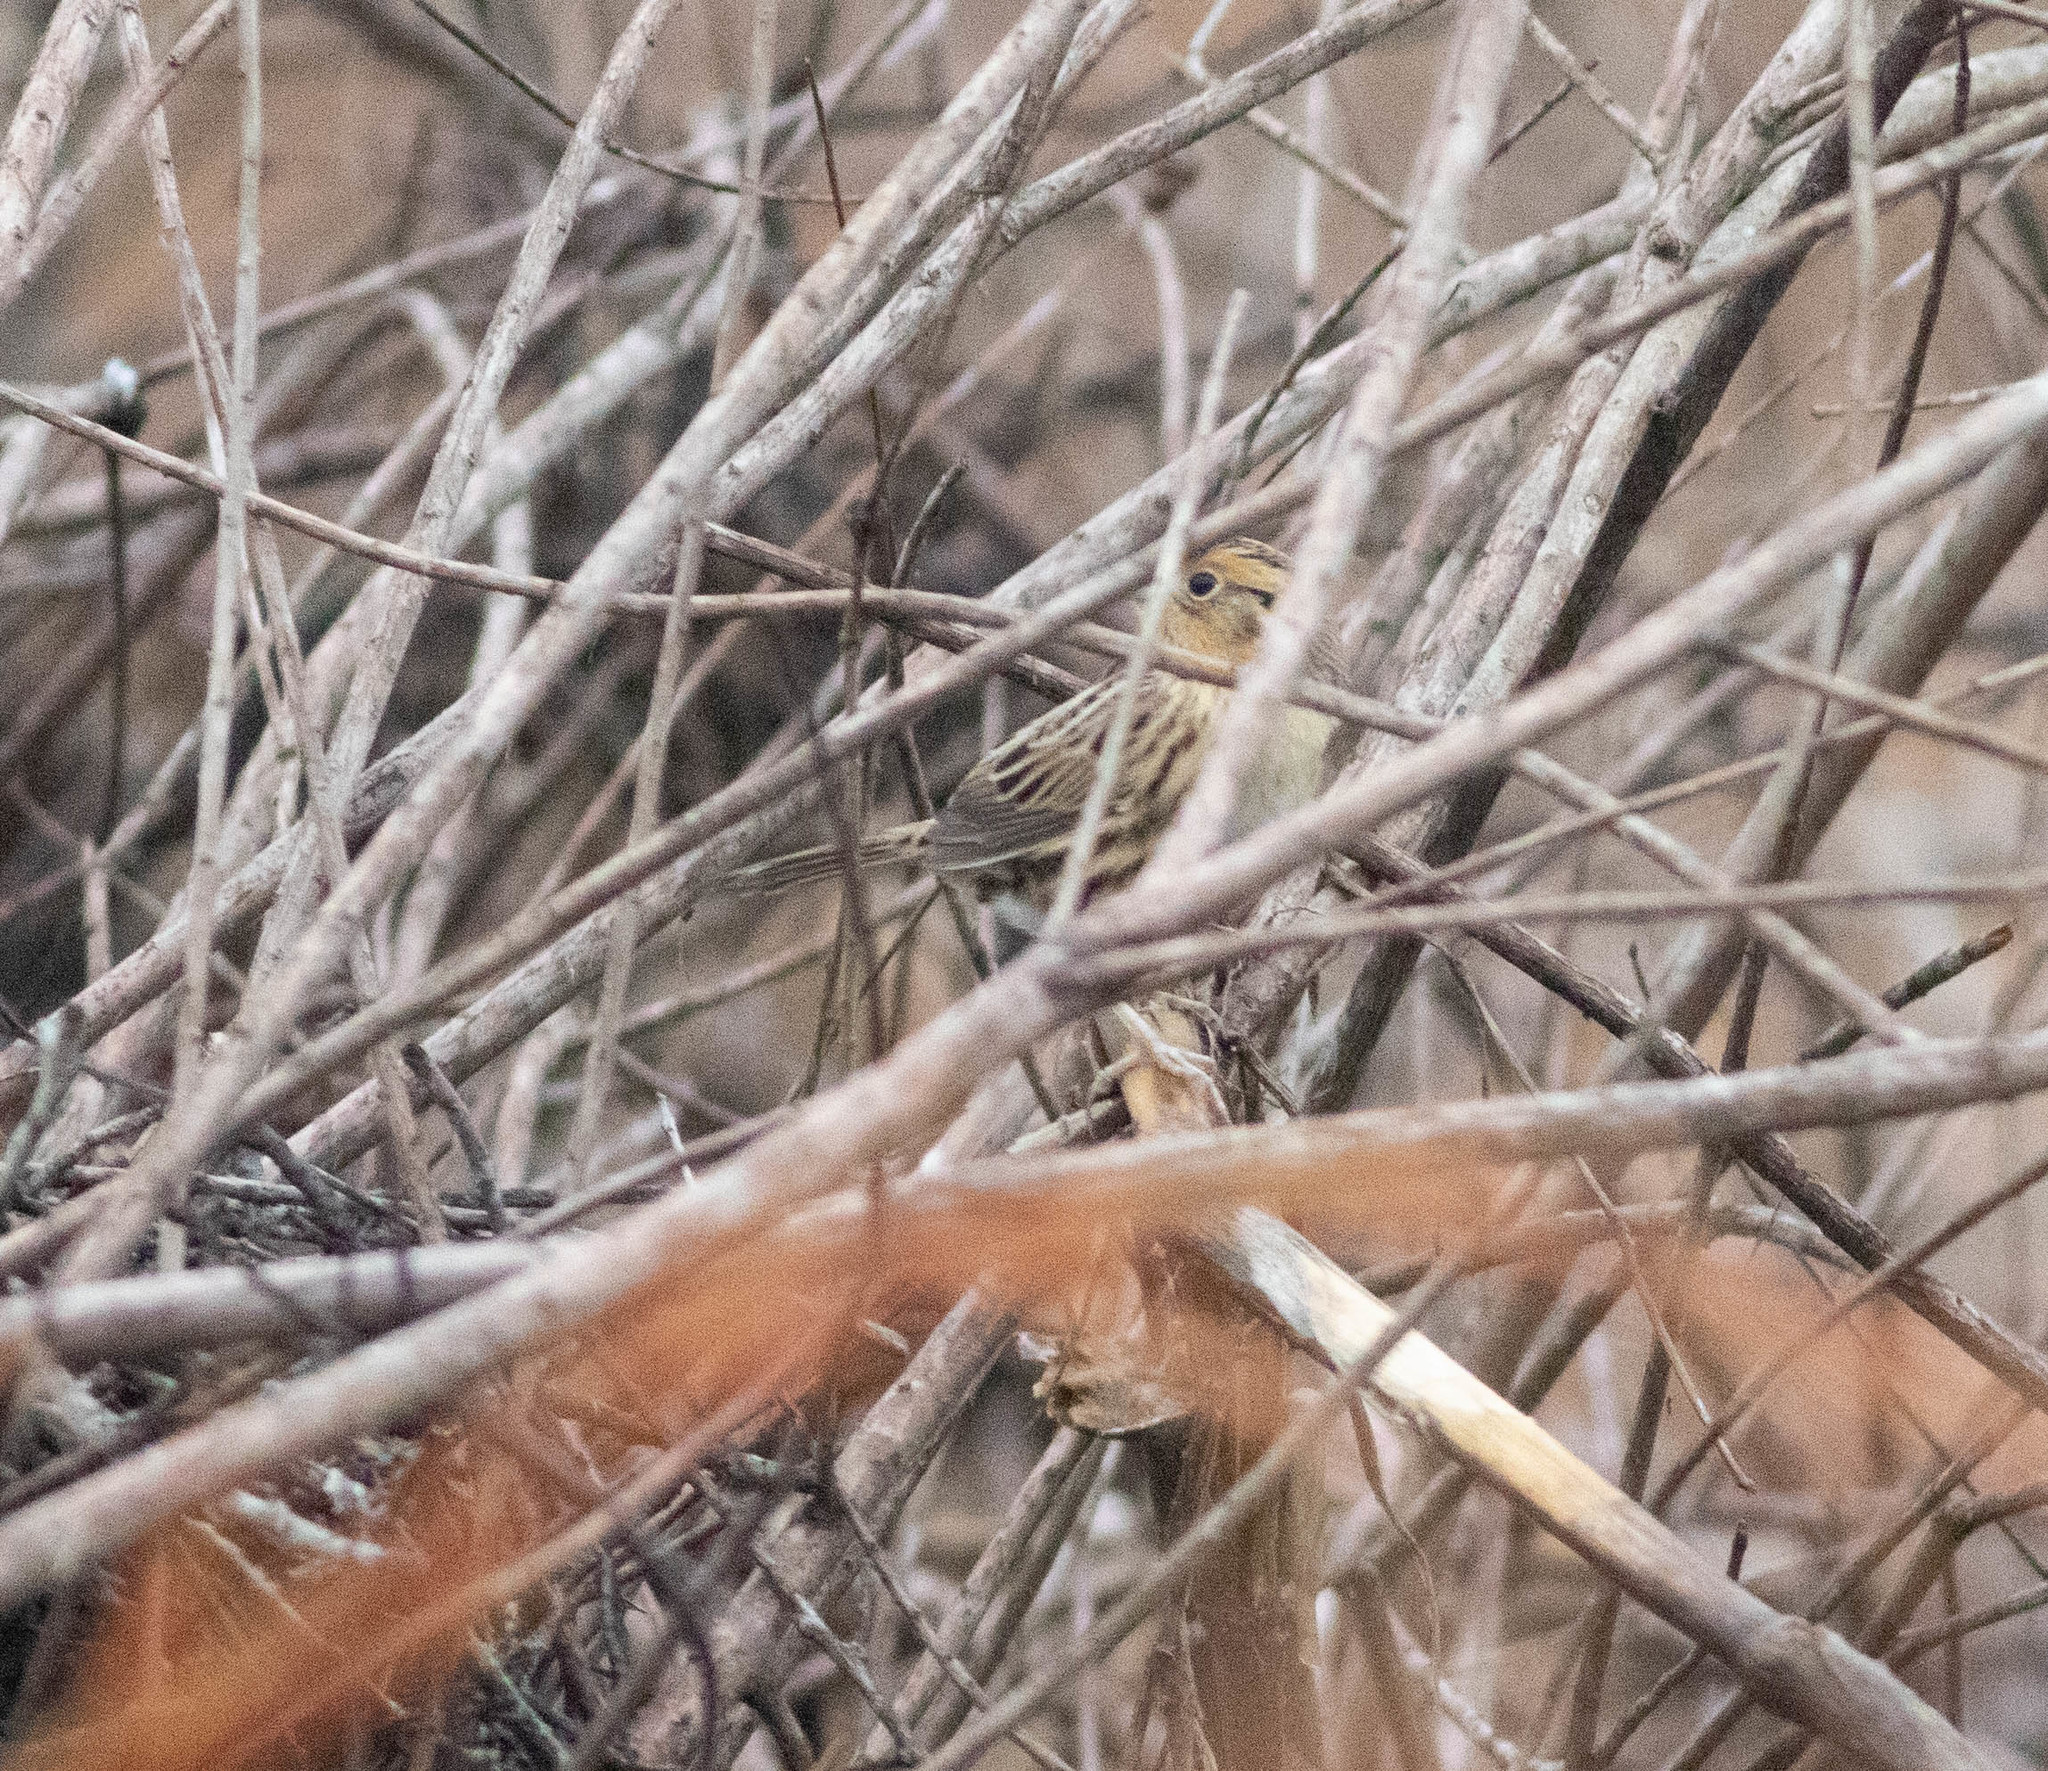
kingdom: Animalia
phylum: Chordata
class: Aves
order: Passeriformes
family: Passerellidae
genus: Ammospiza
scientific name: Ammospiza leconteii
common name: Le conte's sparrow
